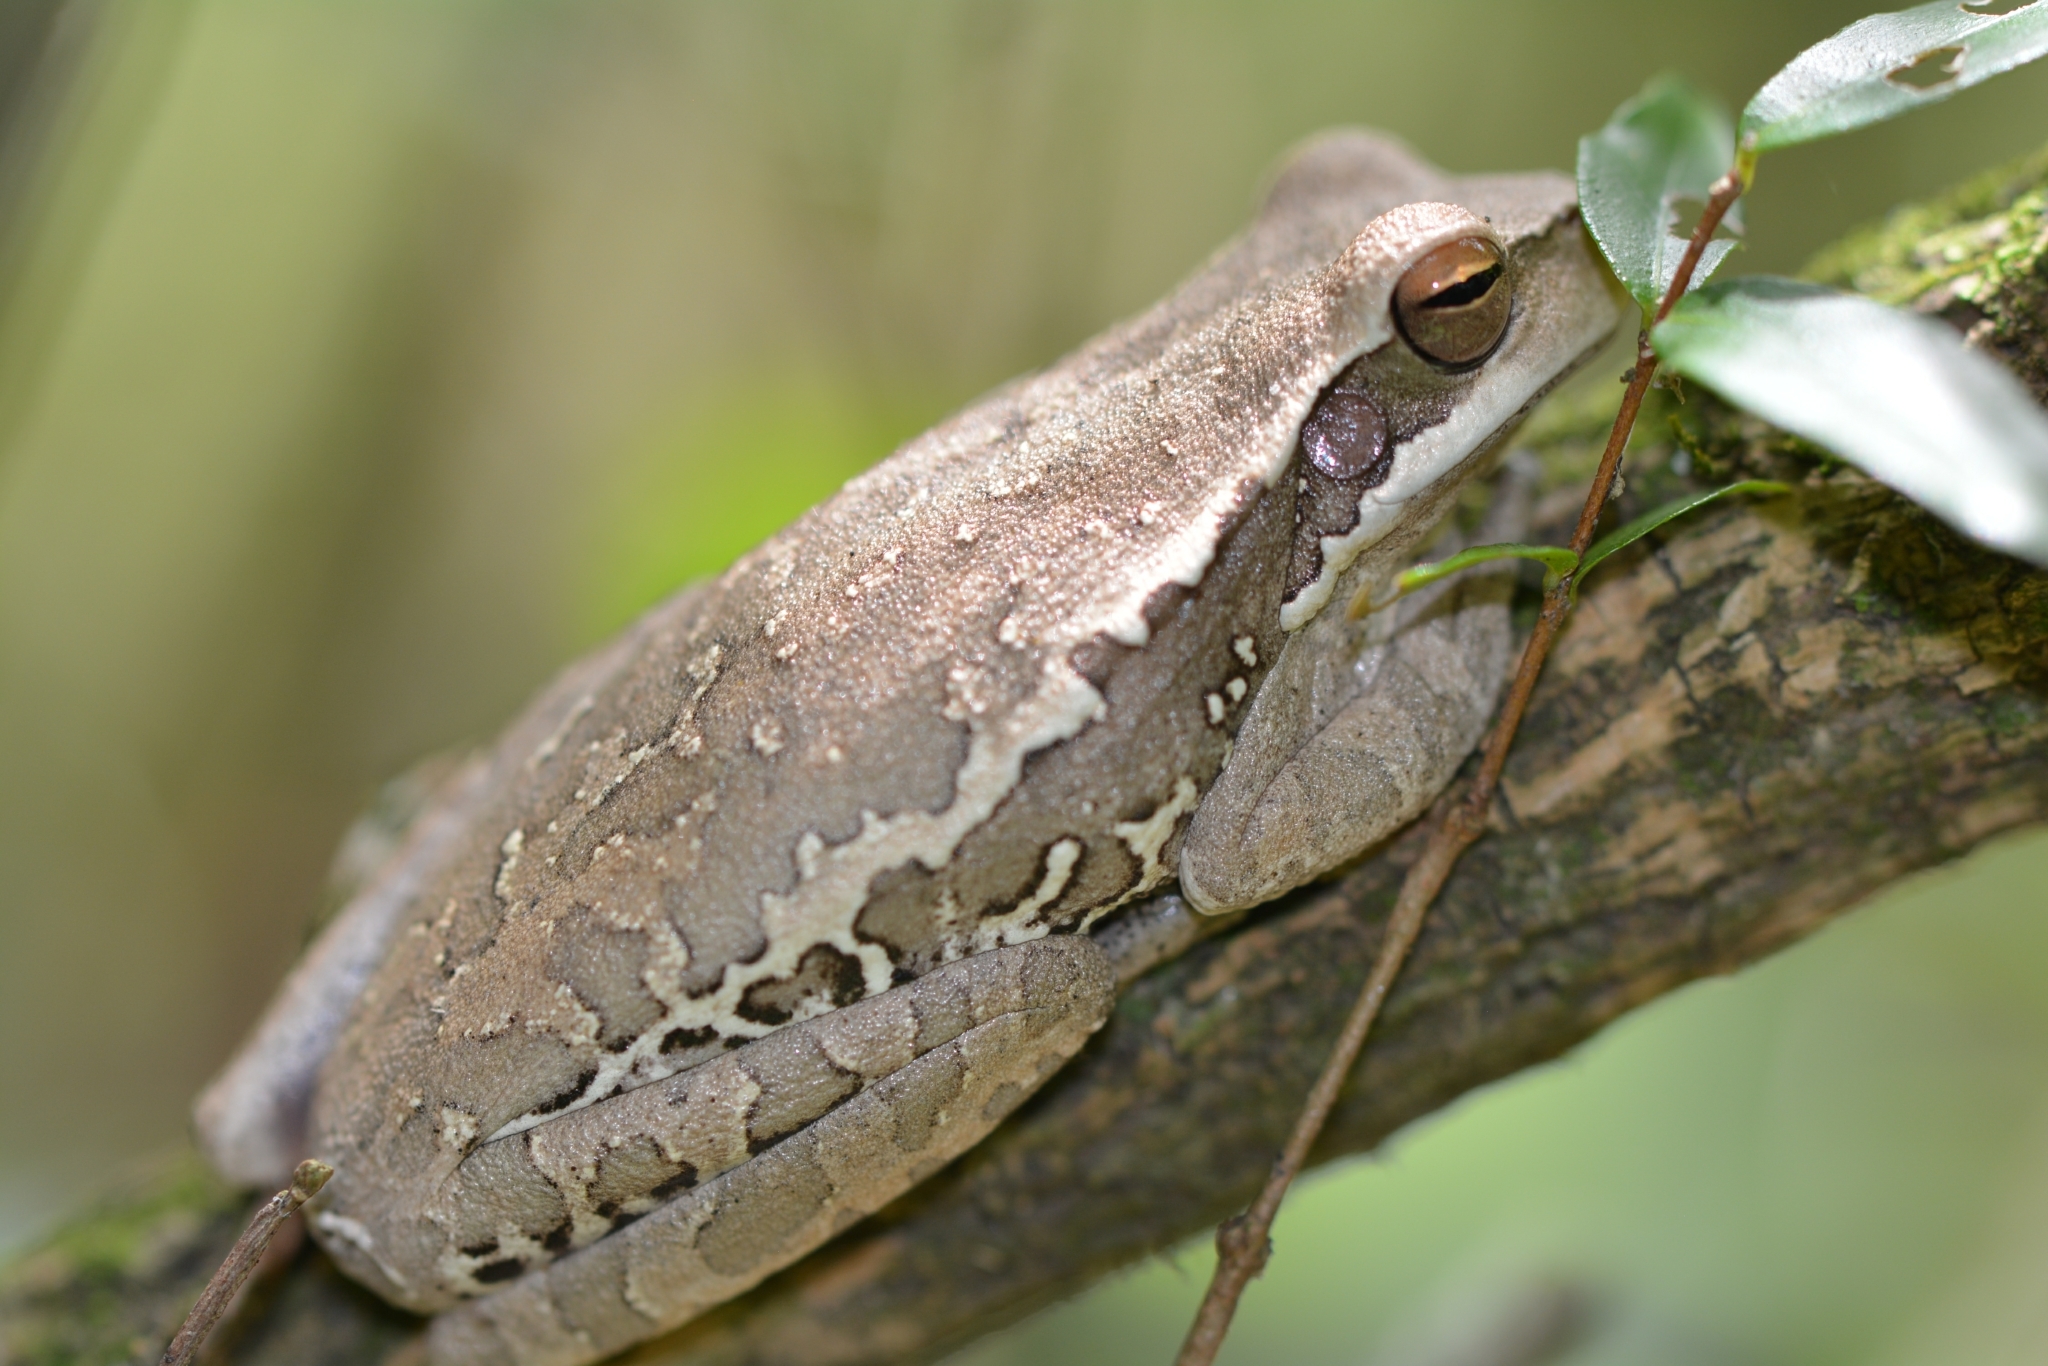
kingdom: Animalia
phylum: Chordata
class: Amphibia
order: Anura
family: Hylidae
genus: Boana
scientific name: Boana pulchella
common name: Montevideo treefrog
